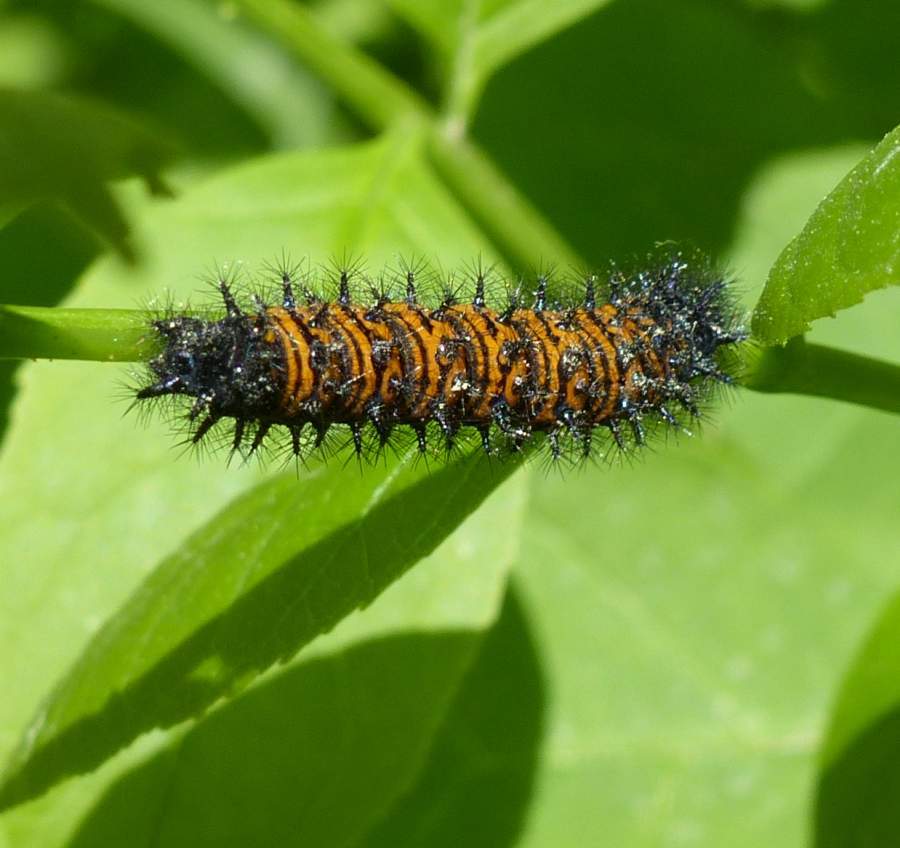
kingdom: Animalia
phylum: Arthropoda
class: Insecta
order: Lepidoptera
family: Nymphalidae
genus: Euphydryas
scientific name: Euphydryas phaeton
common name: Baltimore checkerspot
